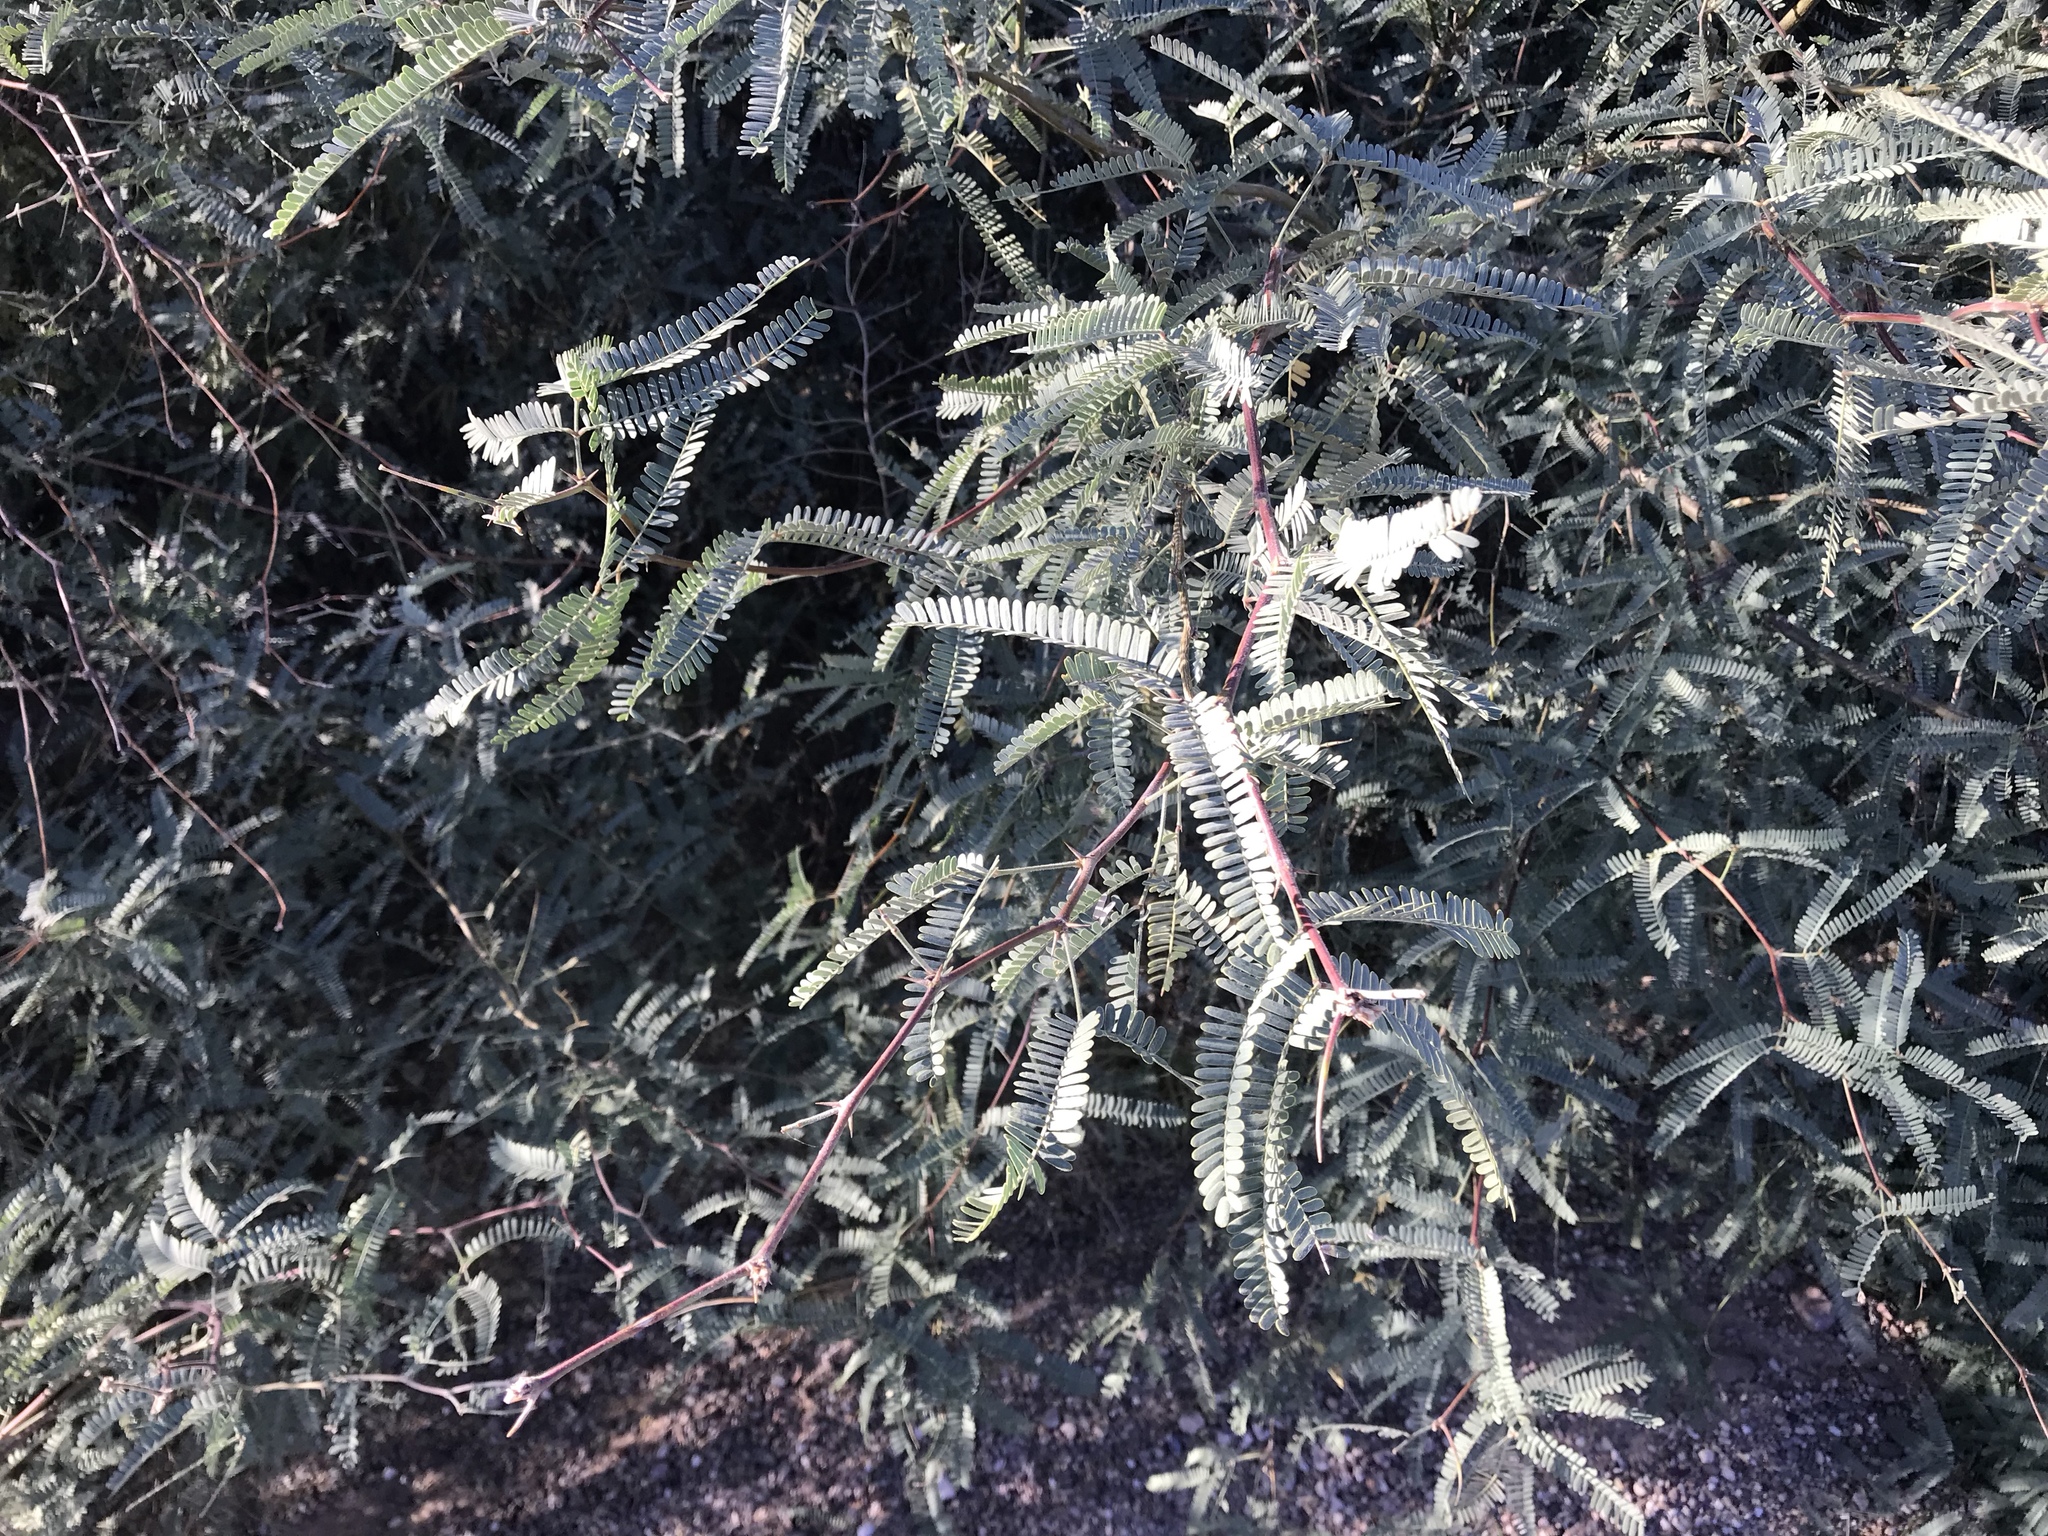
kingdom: Plantae
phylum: Tracheophyta
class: Magnoliopsida
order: Fabales
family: Fabaceae
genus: Prosopis
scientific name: Prosopis velutina
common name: Velvet mesquite
